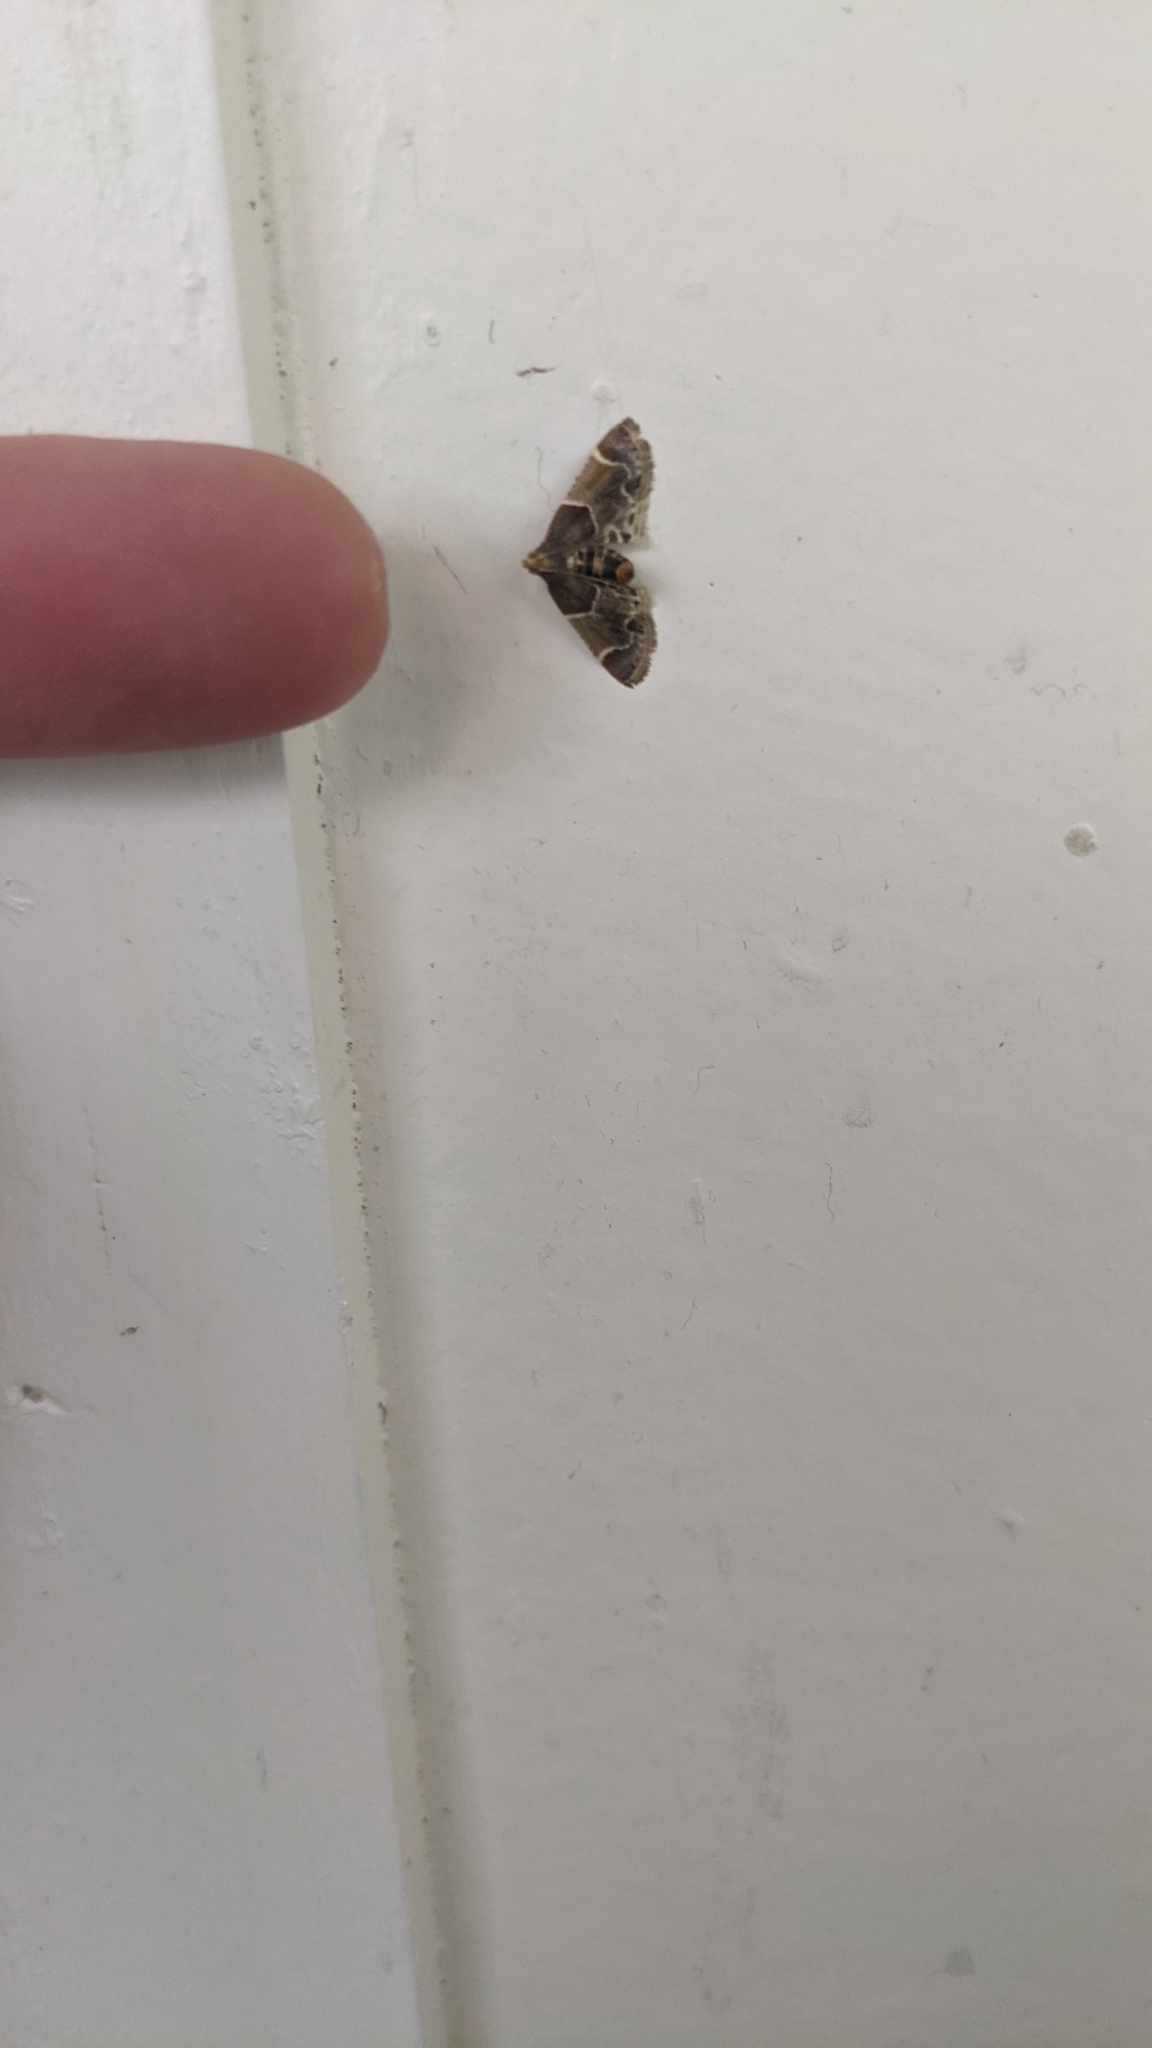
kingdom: Animalia
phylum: Arthropoda
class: Insecta
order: Lepidoptera
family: Pyralidae
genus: Pyralis
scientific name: Pyralis farinalis
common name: Meal moth
